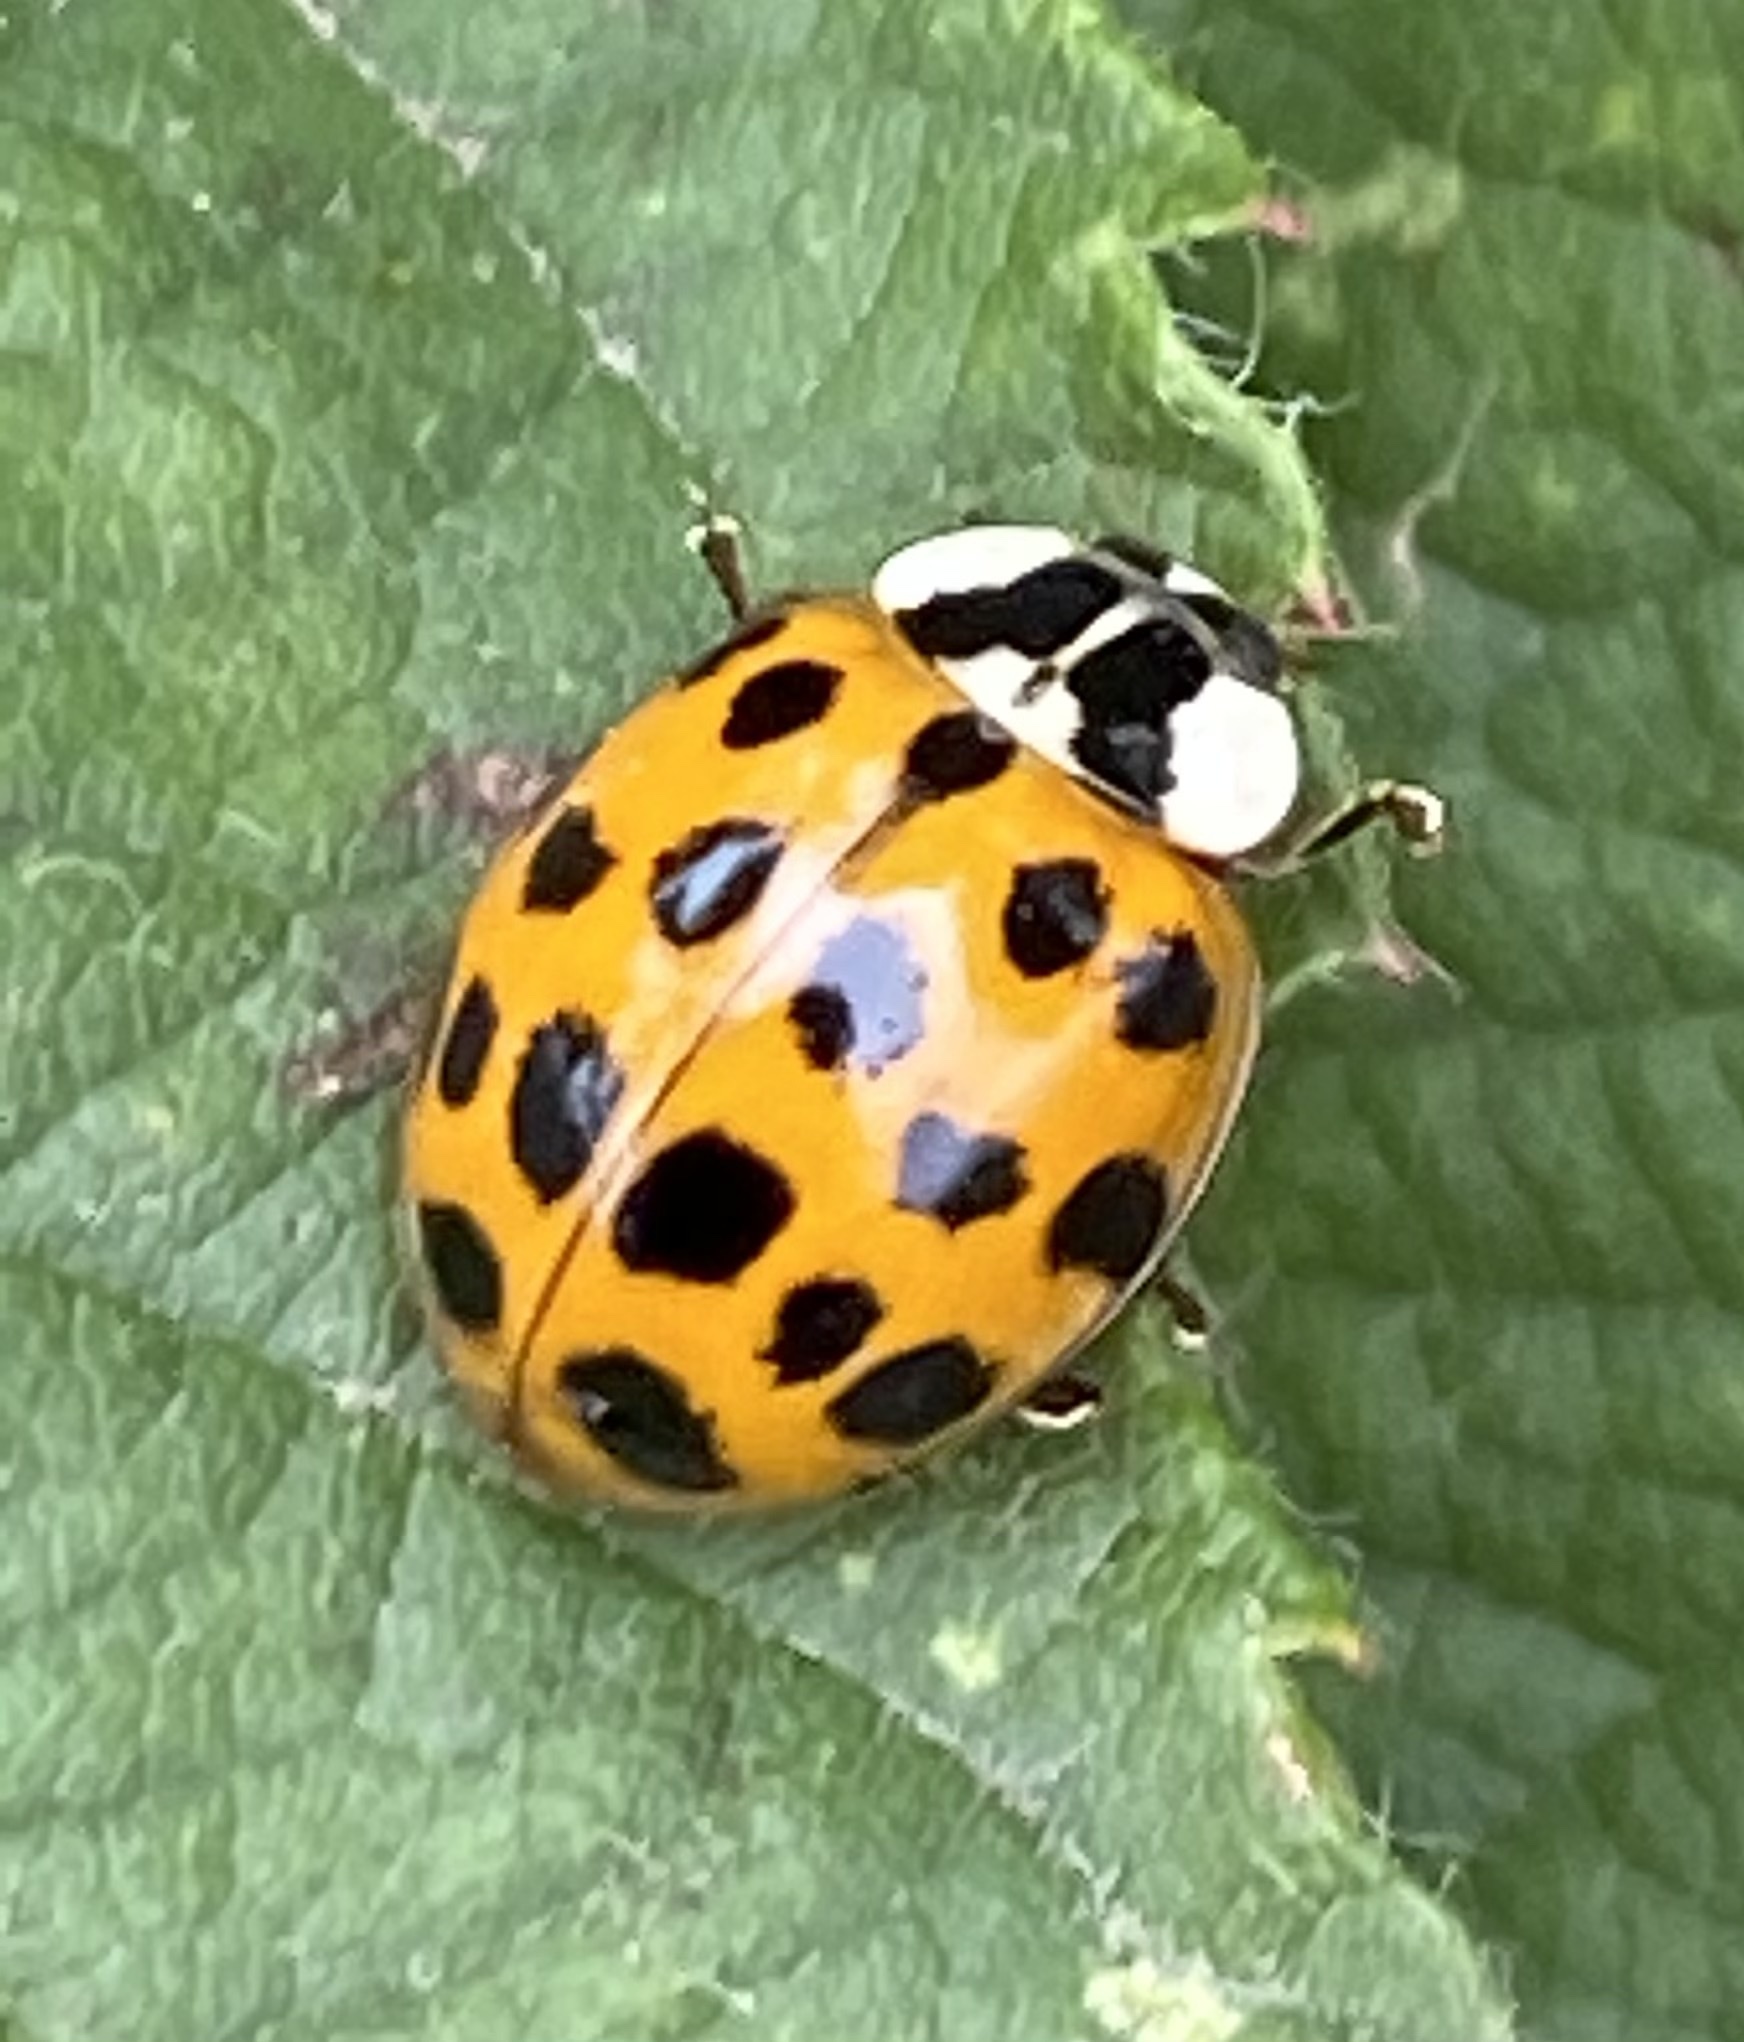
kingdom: Animalia
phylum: Arthropoda
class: Insecta
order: Coleoptera
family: Coccinellidae
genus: Harmonia
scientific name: Harmonia axyridis
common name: Harlequin ladybird
